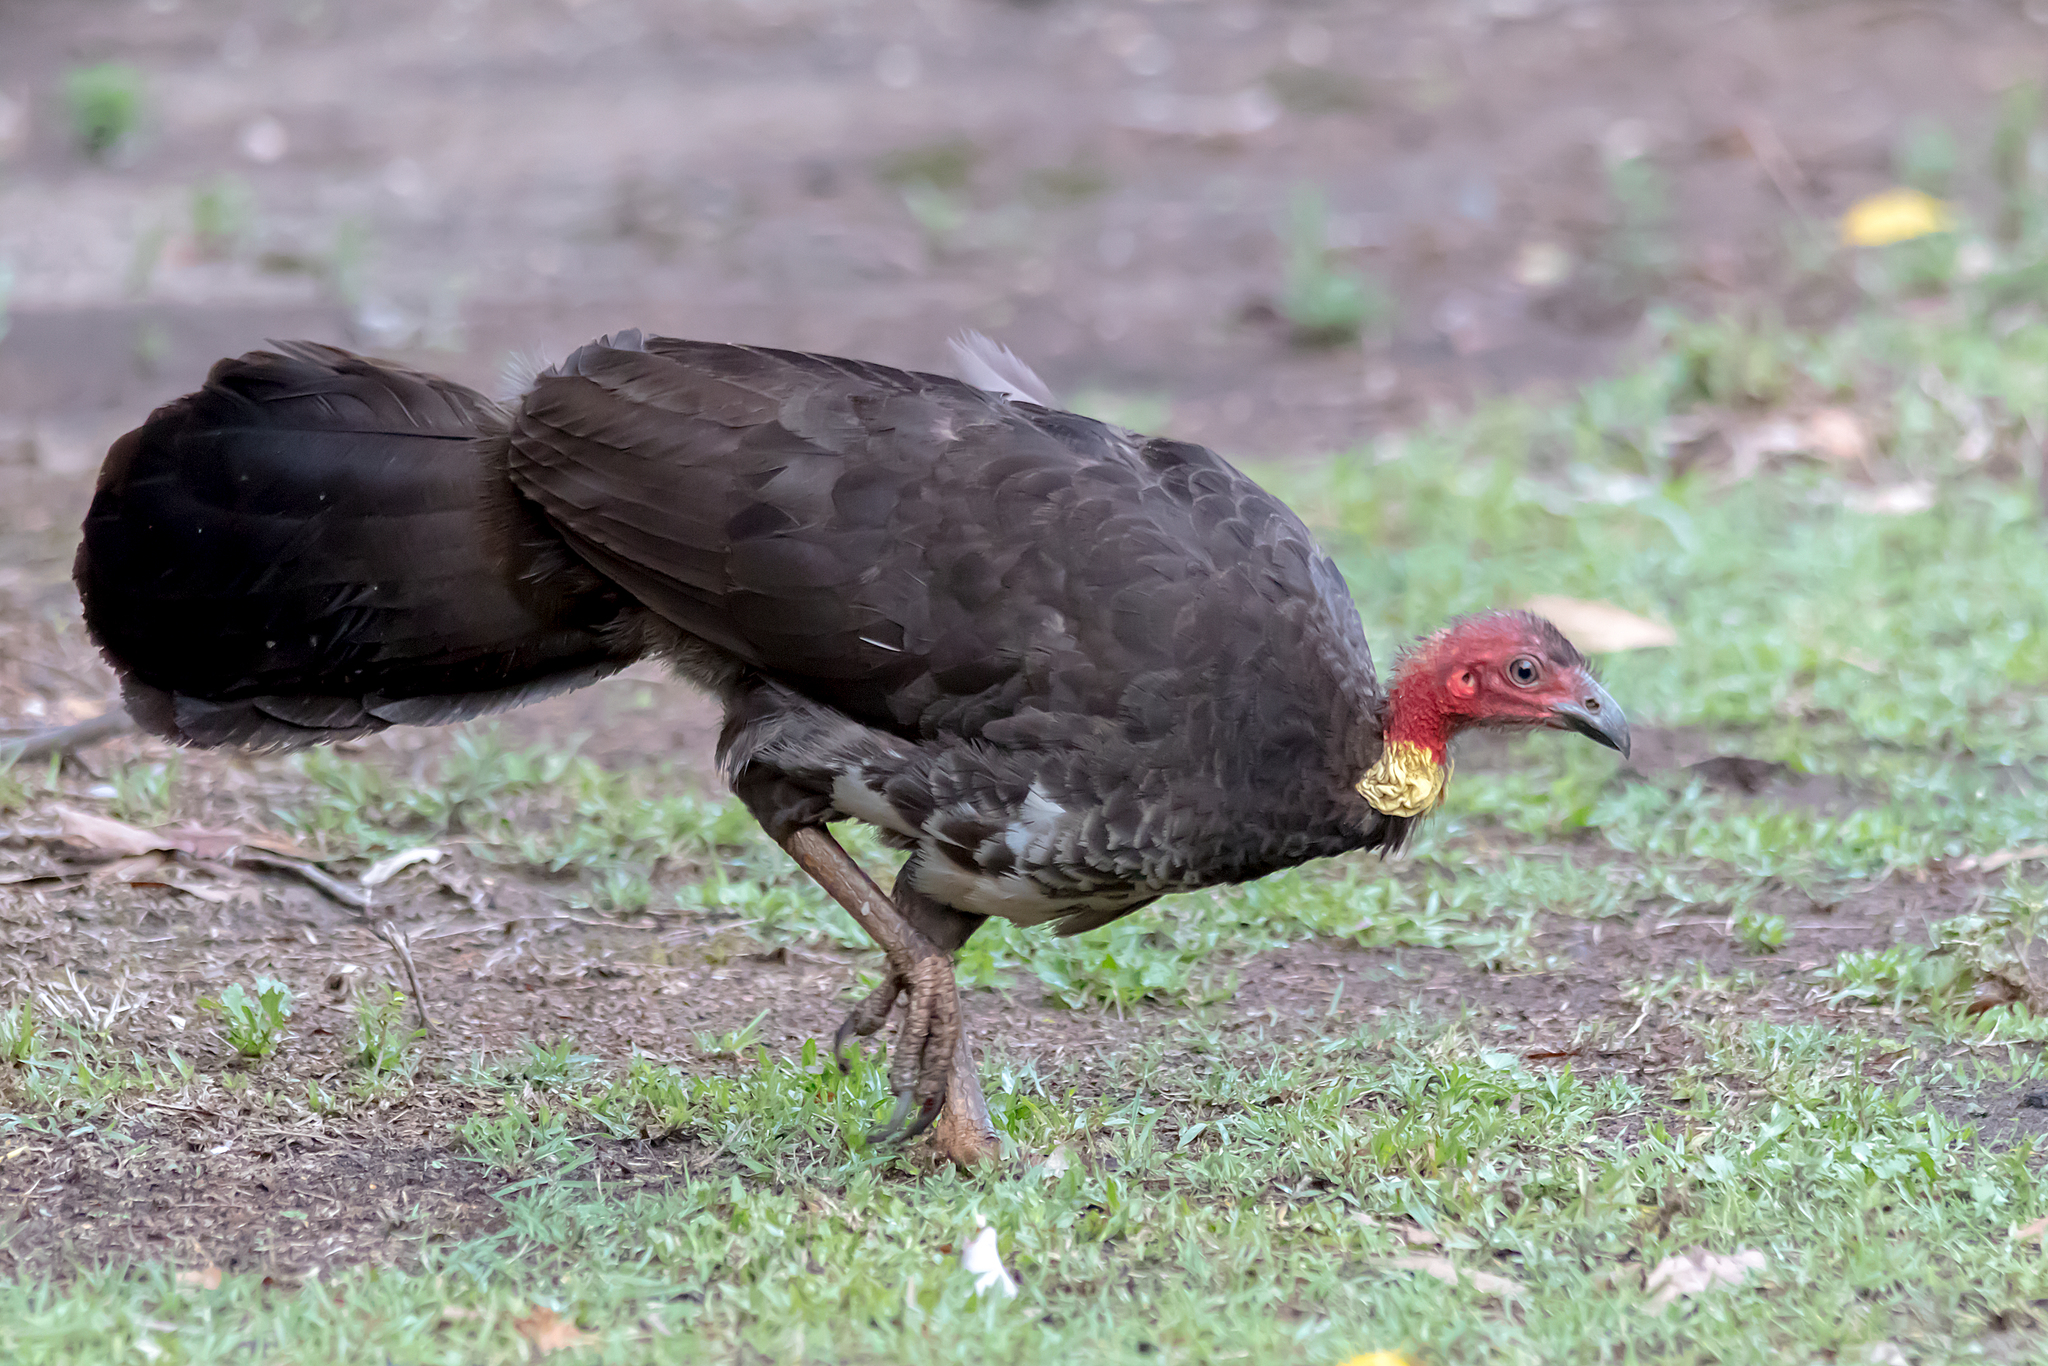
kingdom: Animalia
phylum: Chordata
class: Aves
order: Galliformes
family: Megapodiidae
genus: Alectura
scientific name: Alectura lathami
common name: Australian brushturkey
